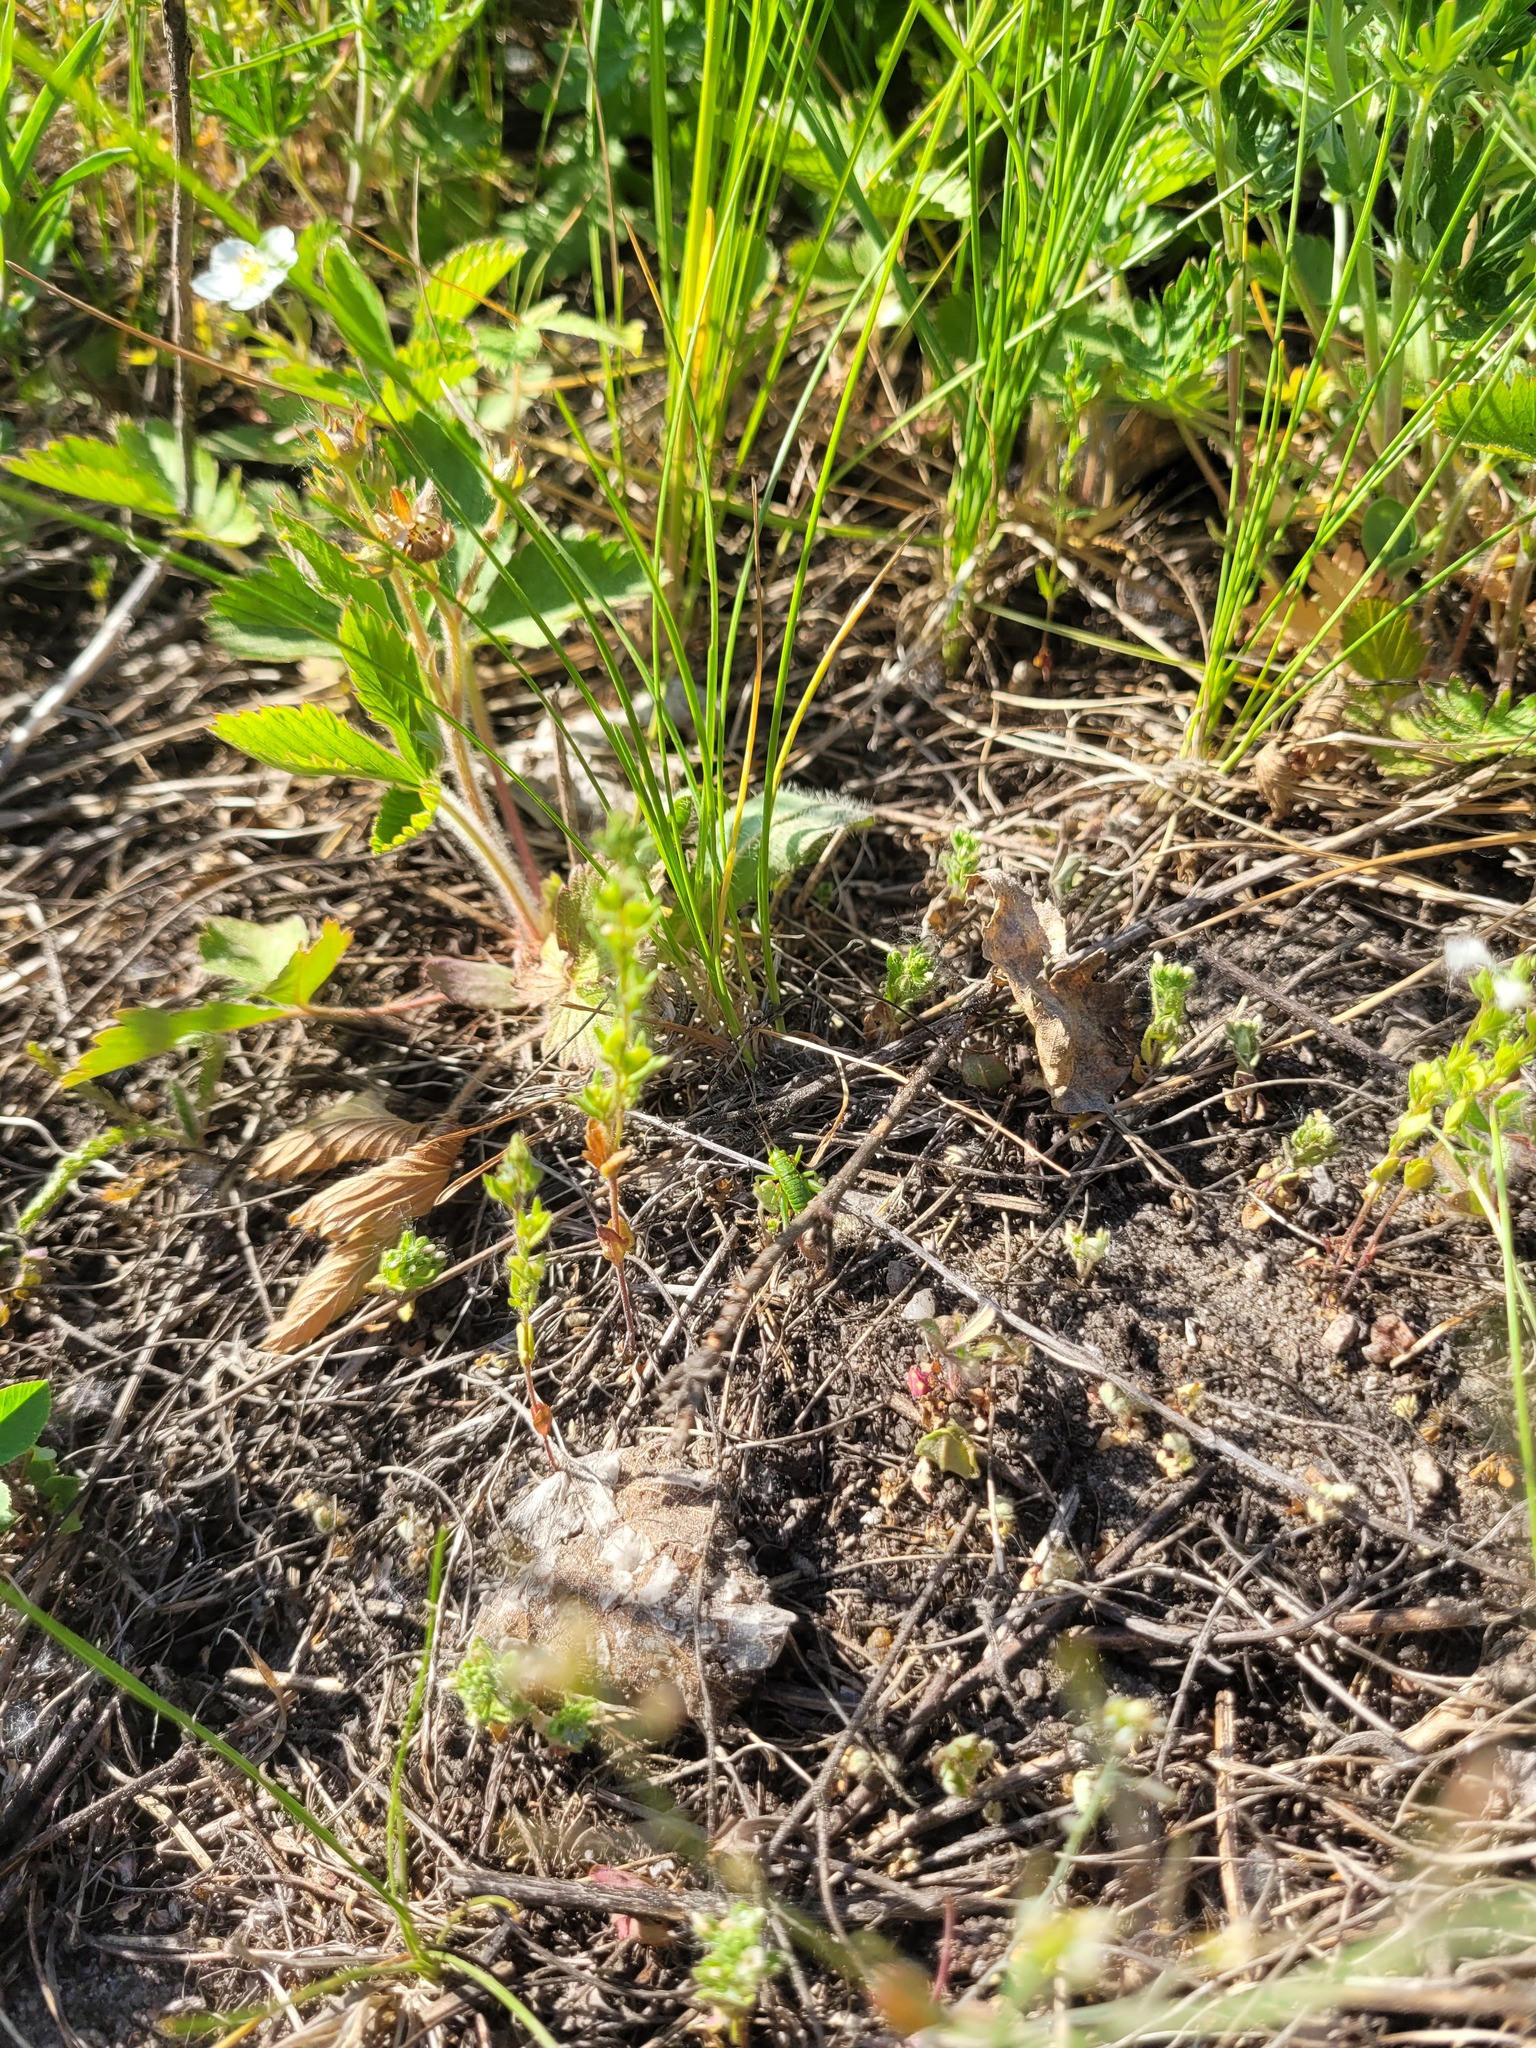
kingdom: Plantae
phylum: Tracheophyta
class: Magnoliopsida
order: Lamiales
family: Plantaginaceae
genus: Veronica
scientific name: Veronica verna
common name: Spring speedwell
